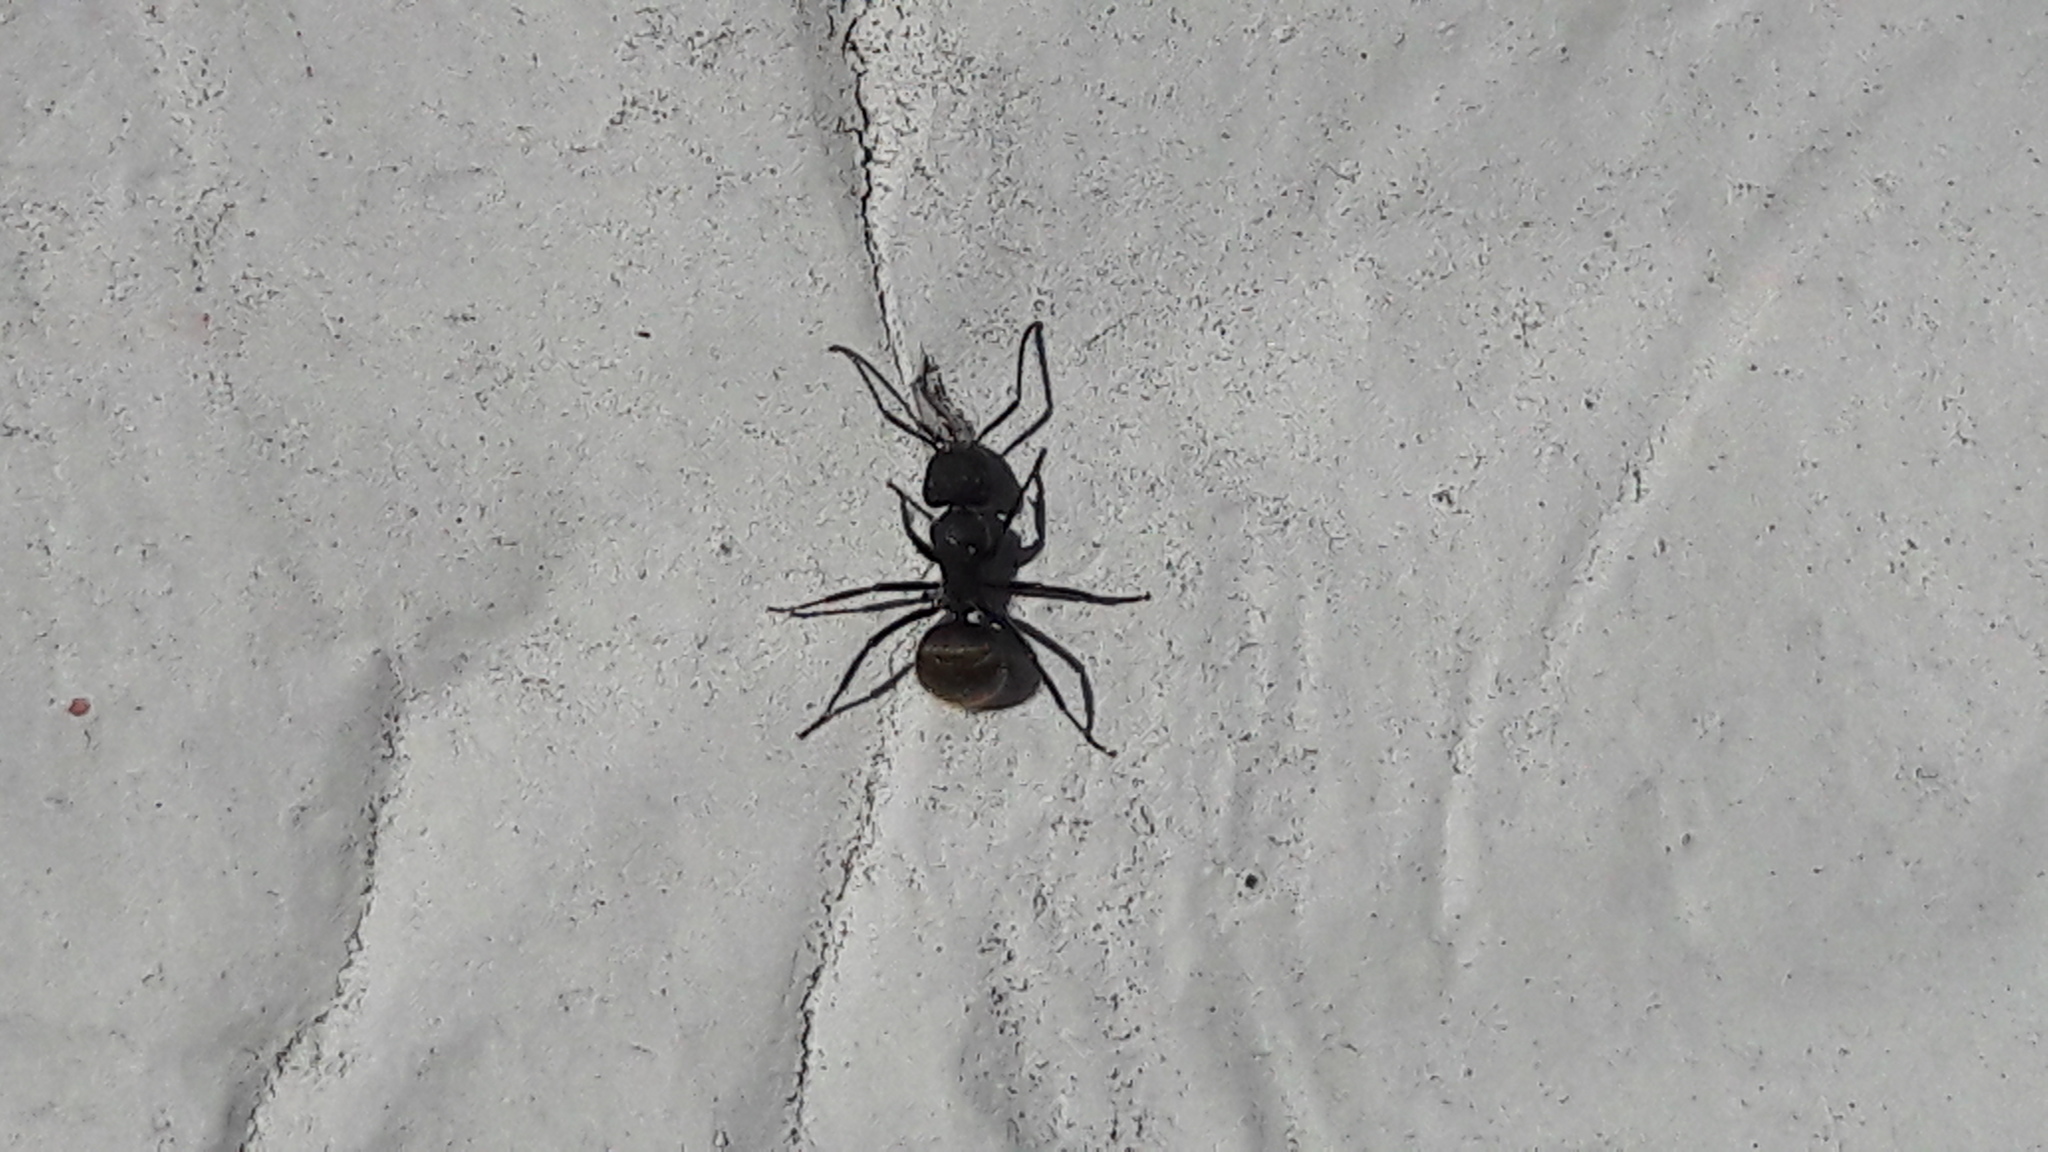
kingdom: Animalia
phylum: Arthropoda
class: Insecta
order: Hymenoptera
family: Formicidae
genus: Camponotus
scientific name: Camponotus mus
